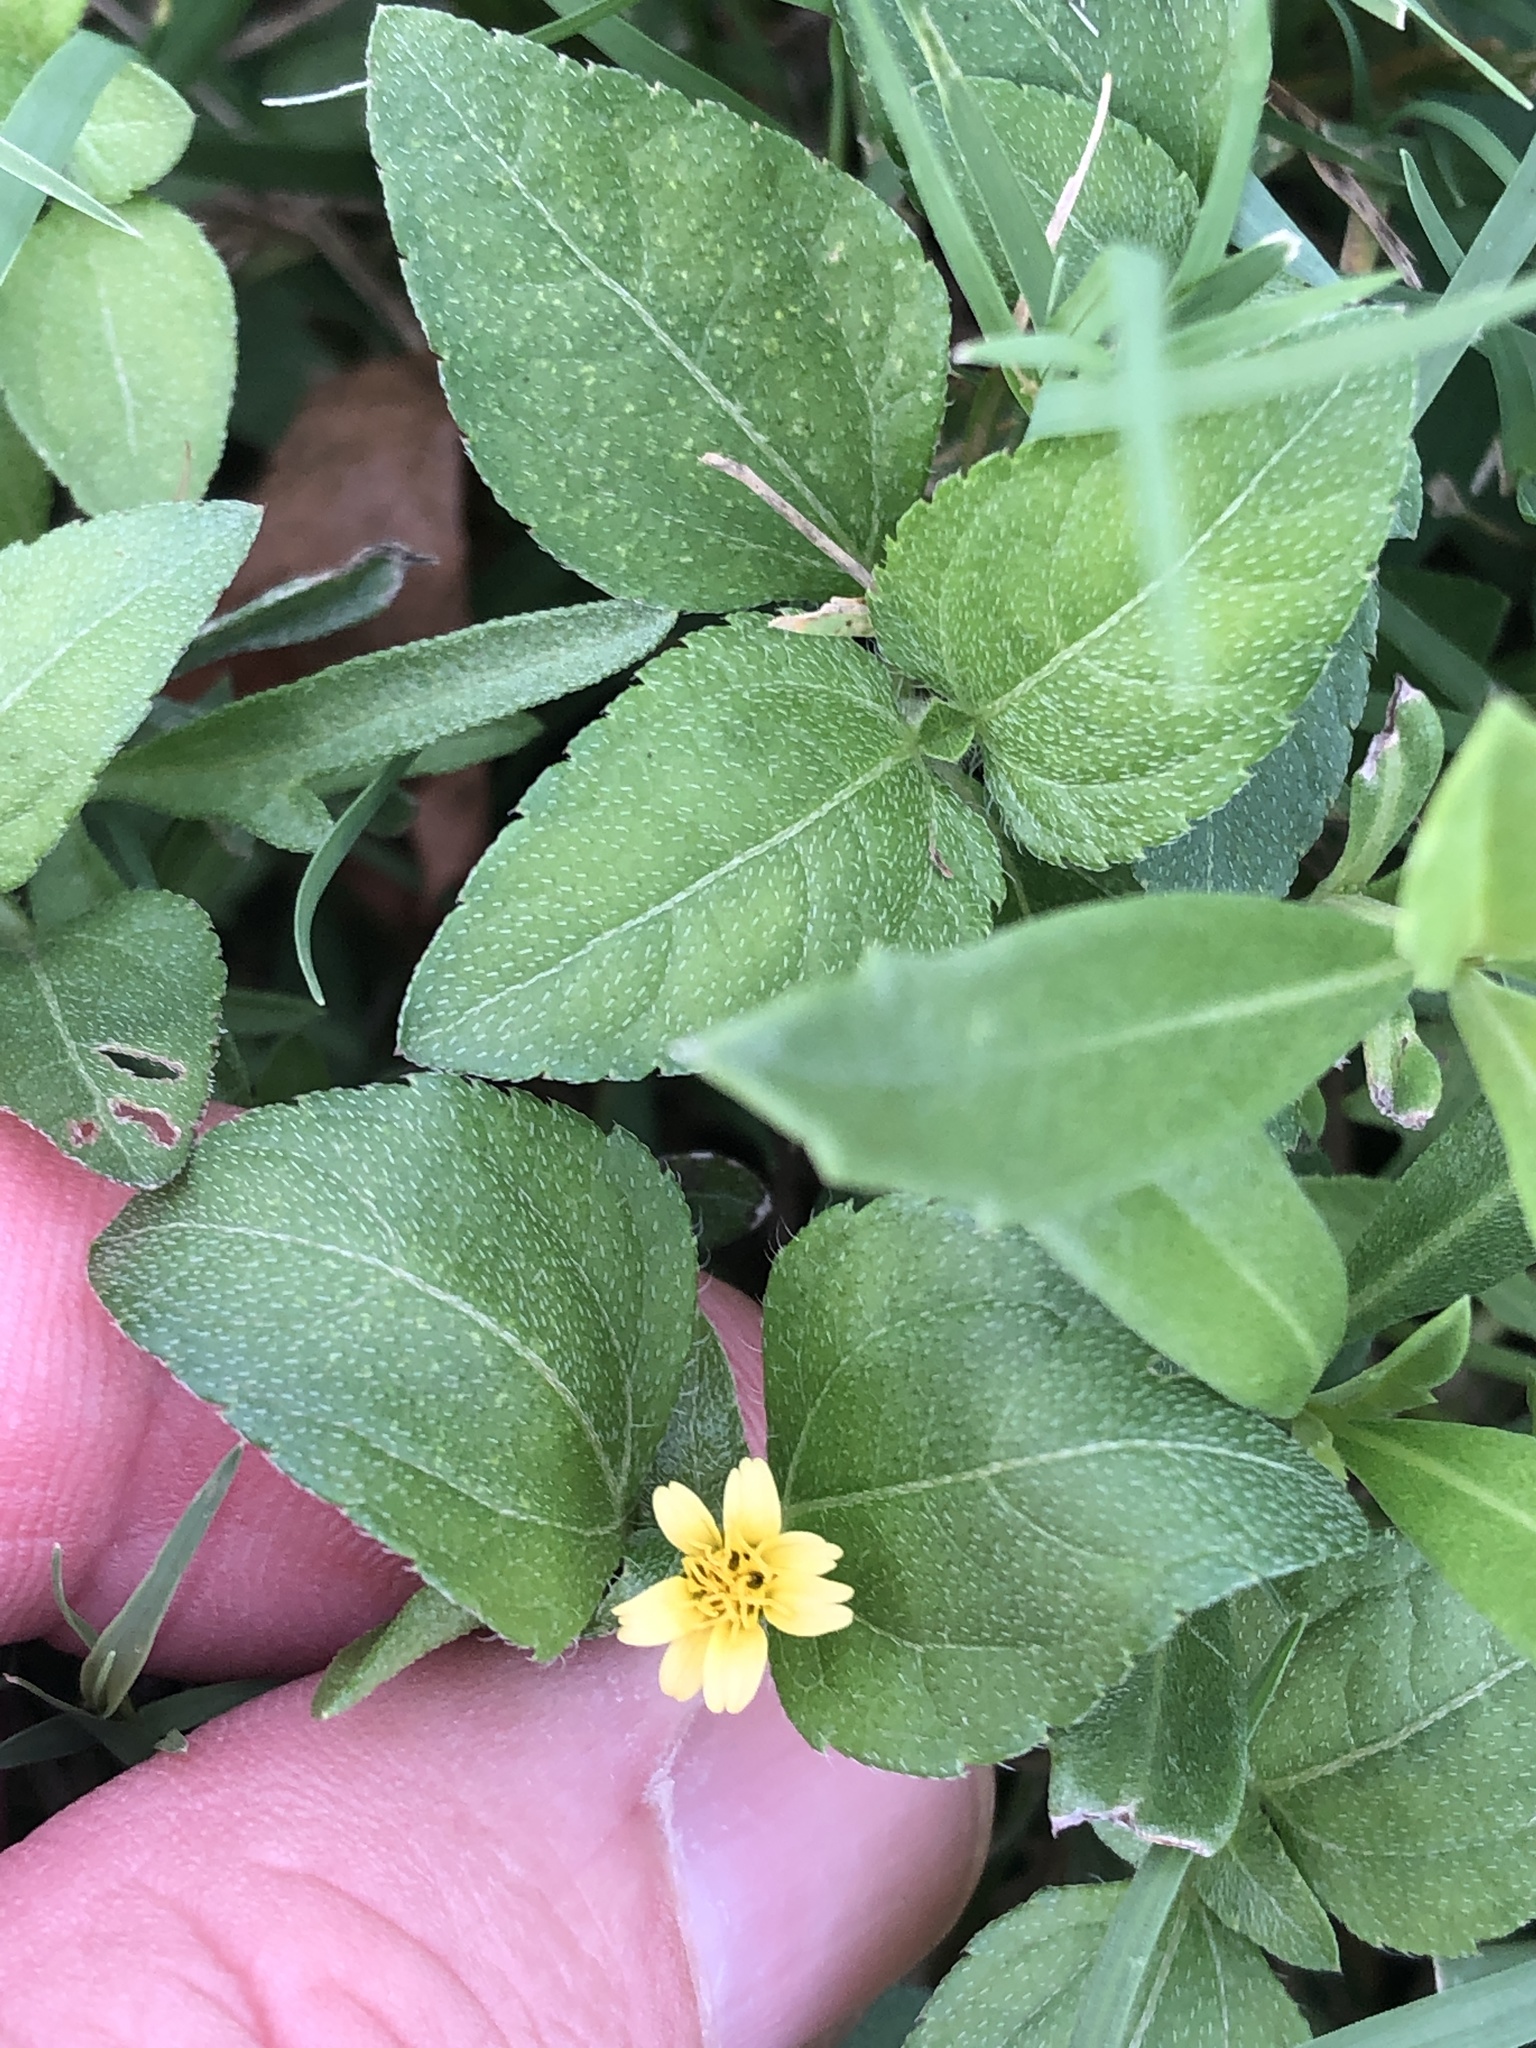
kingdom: Plantae
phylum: Tracheophyta
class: Magnoliopsida
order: Asterales
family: Asteraceae
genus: Calyptocarpus
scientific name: Calyptocarpus vialis
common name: Straggler daisy
